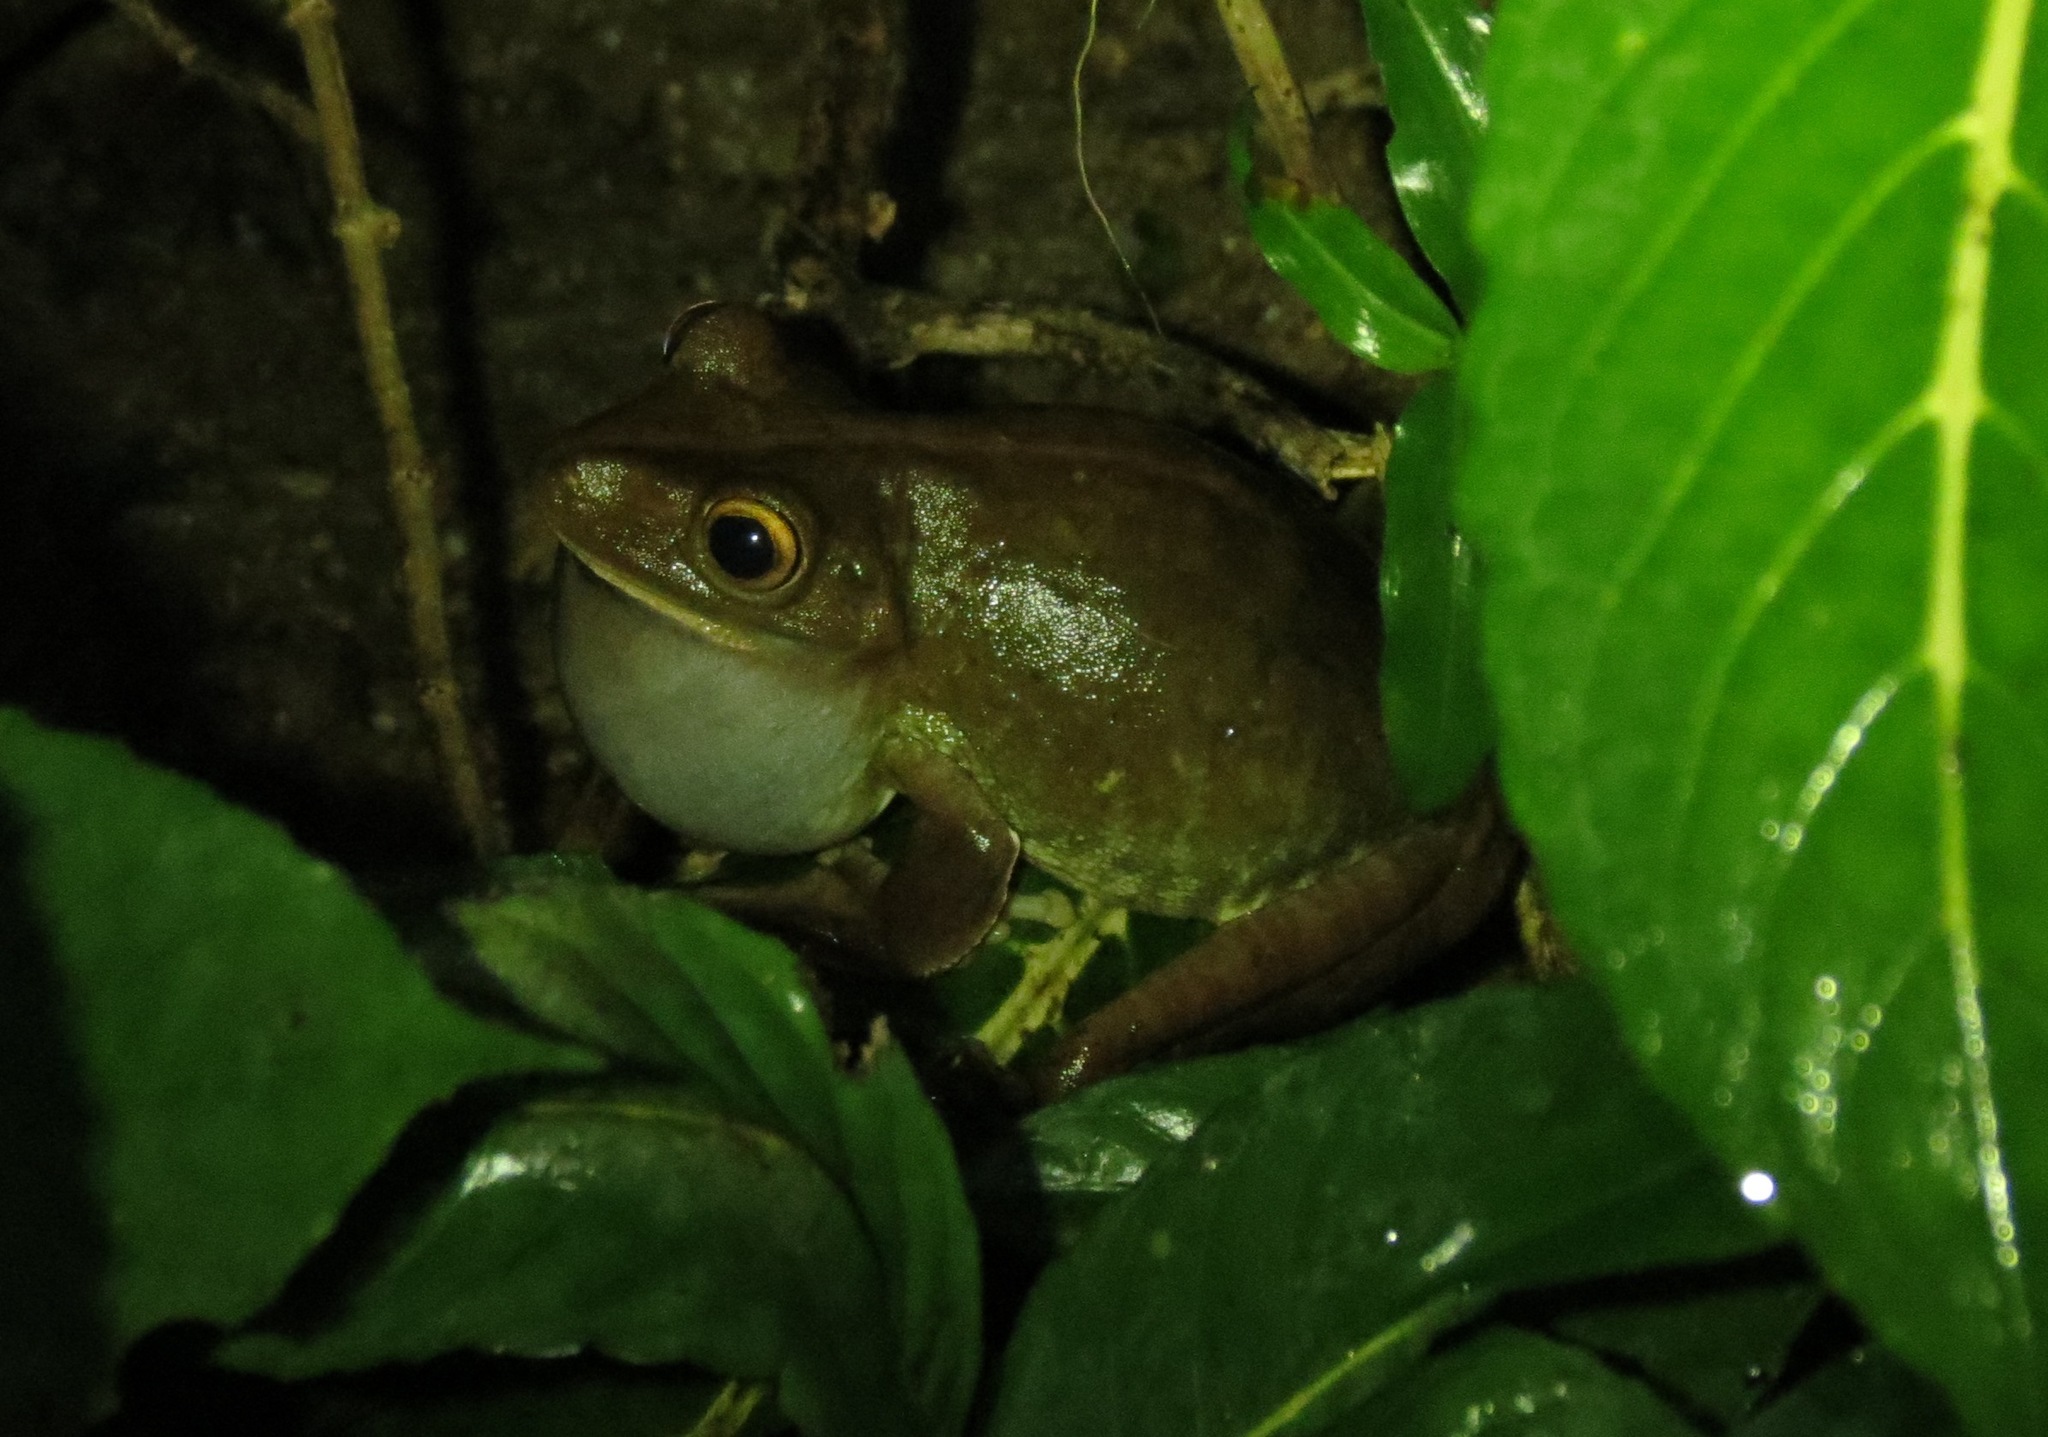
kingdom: Animalia
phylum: Chordata
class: Amphibia
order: Anura
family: Hylidae
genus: Boana
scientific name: Boana boans
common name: Giant gladiator treefrog
